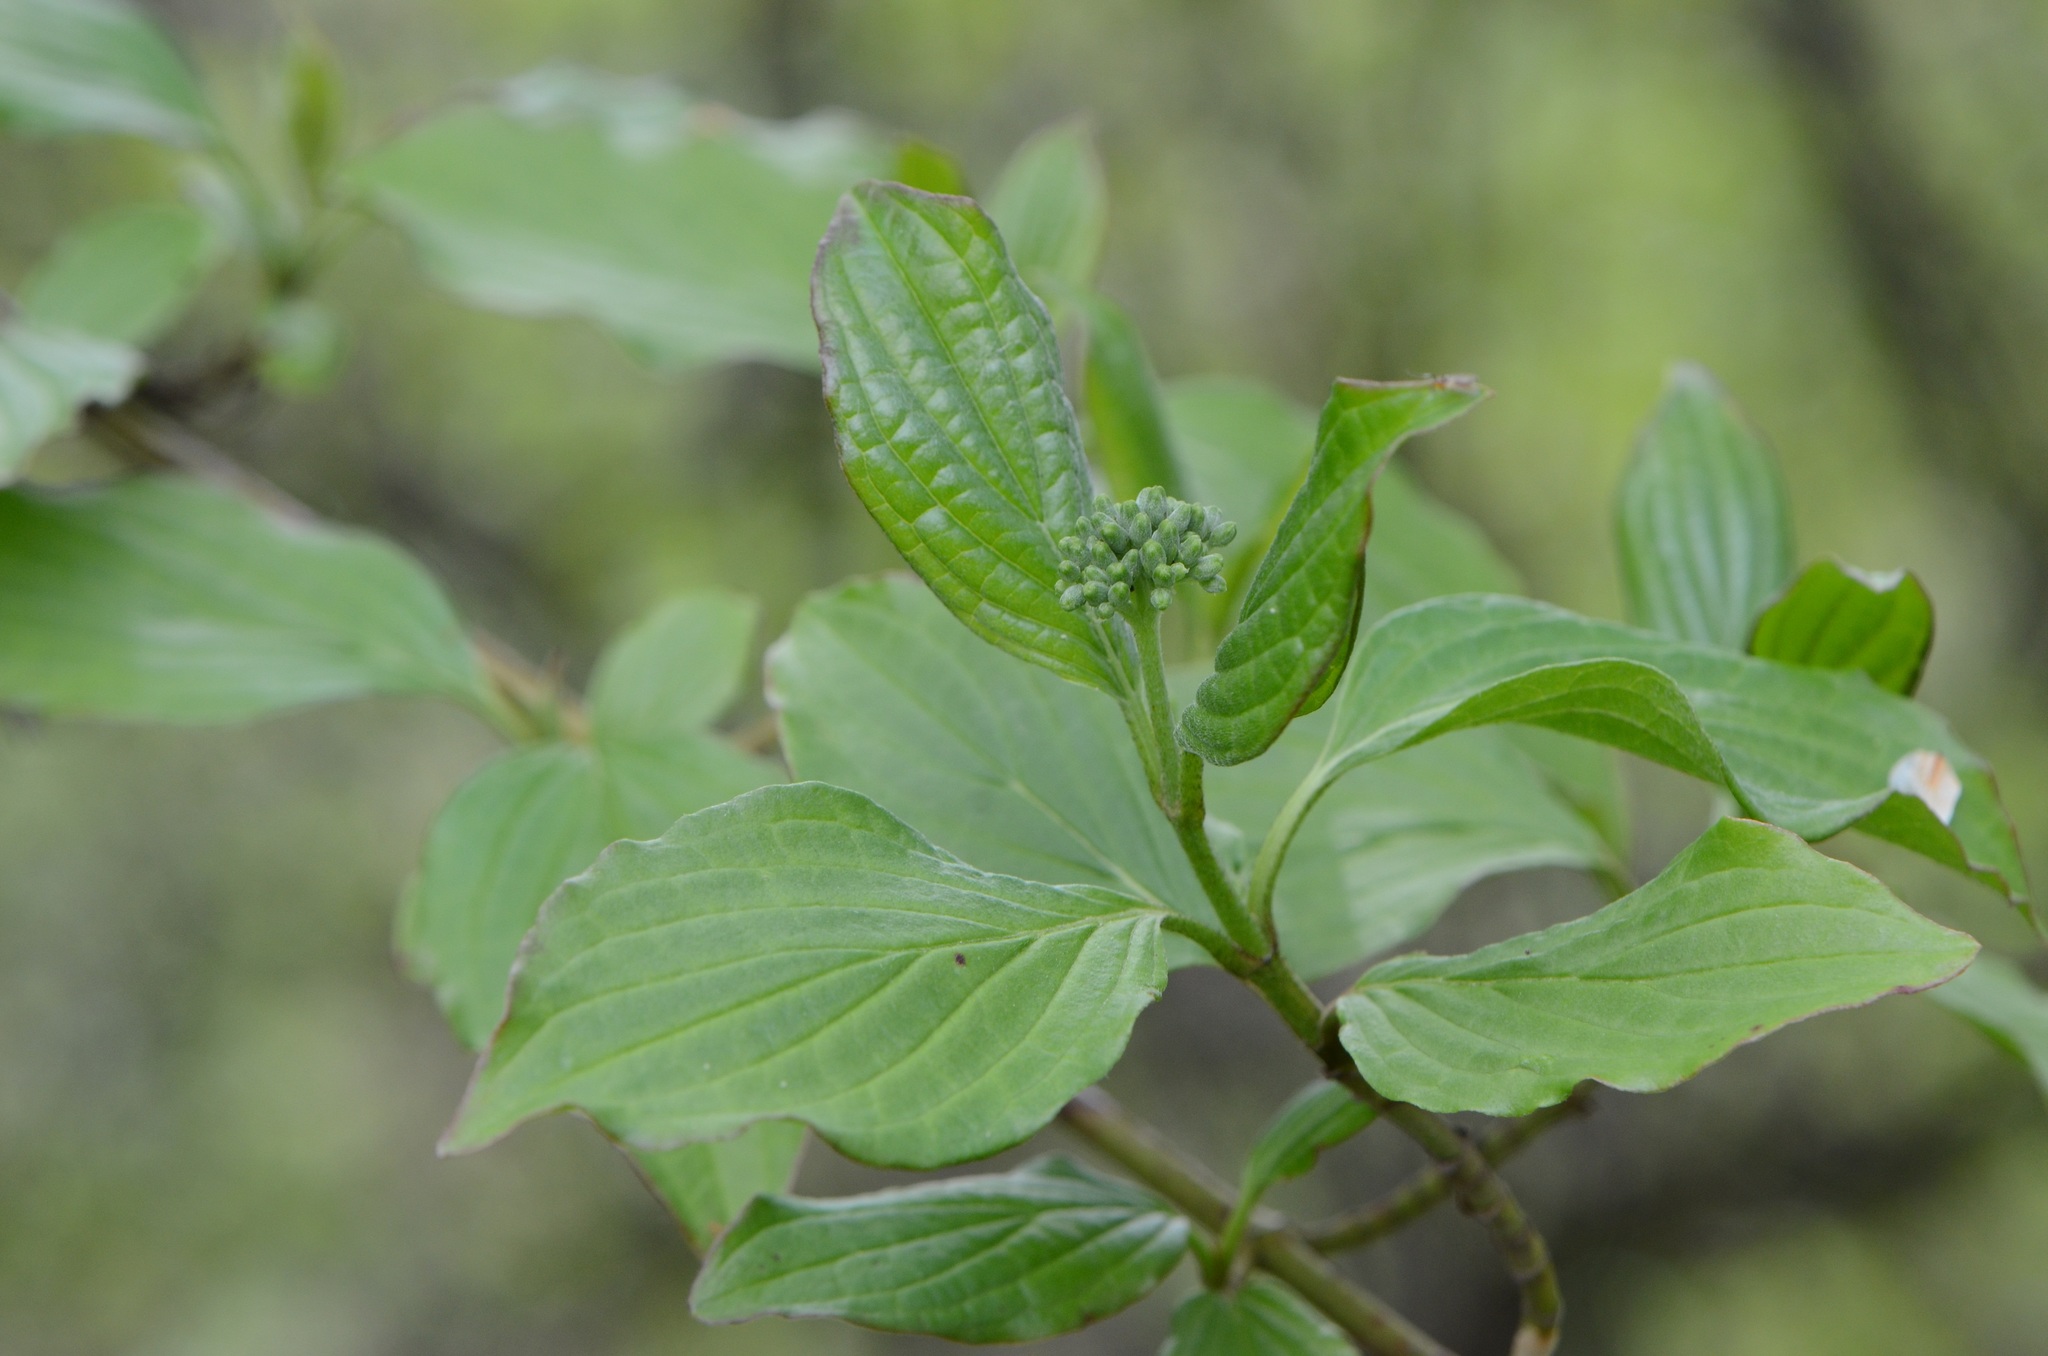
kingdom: Plantae
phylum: Tracheophyta
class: Magnoliopsida
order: Cornales
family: Cornaceae
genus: Cornus
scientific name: Cornus sanguinea
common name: Dogwood
